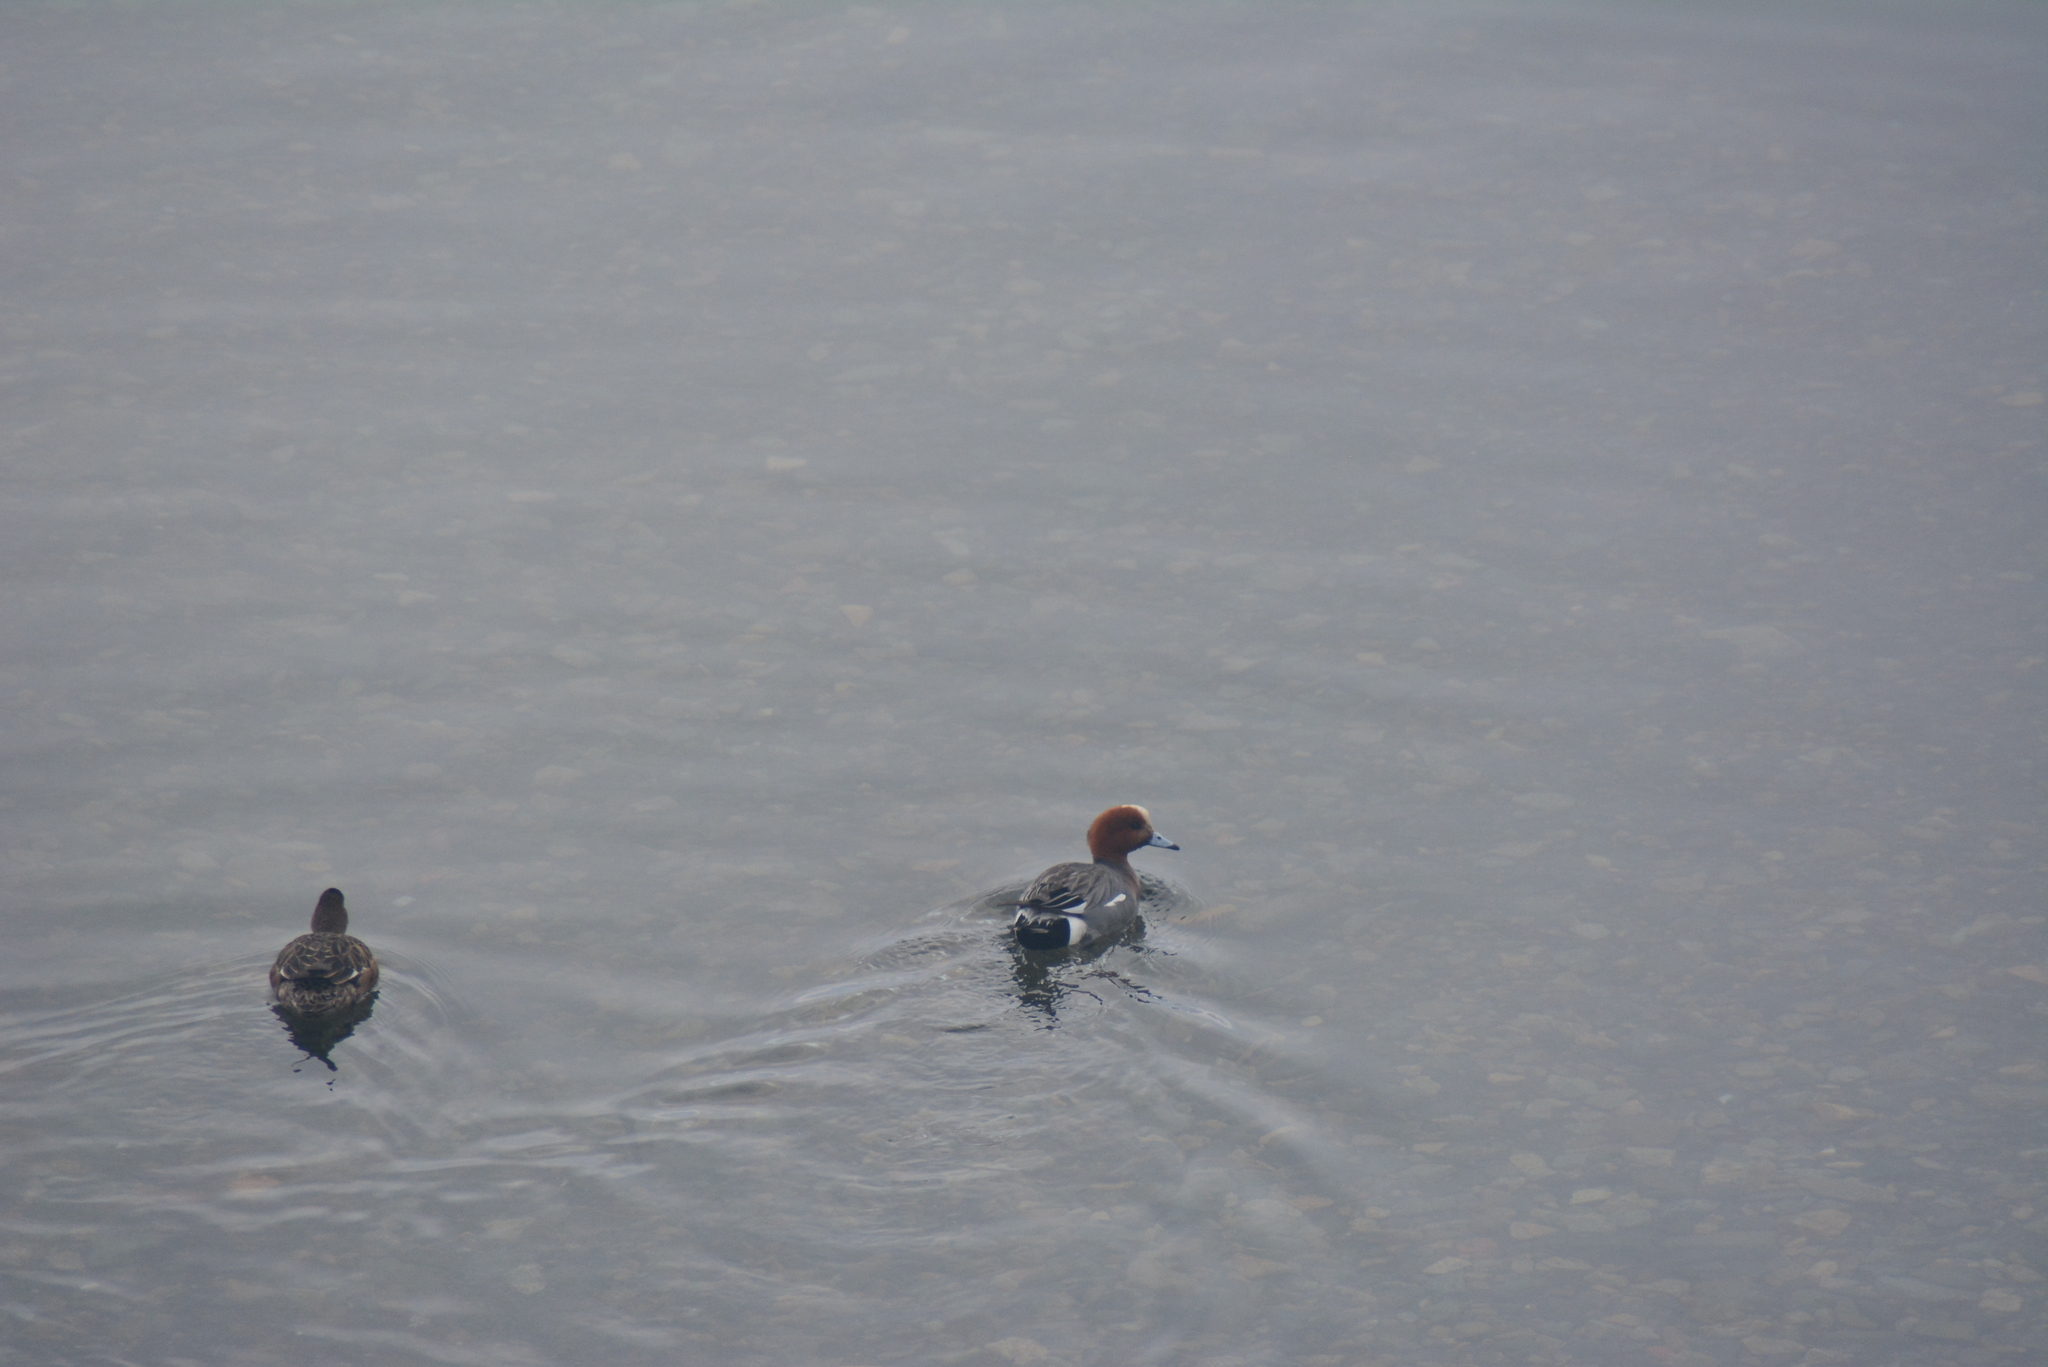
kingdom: Animalia
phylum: Chordata
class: Aves
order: Anseriformes
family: Anatidae
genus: Mareca
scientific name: Mareca penelope
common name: Eurasian wigeon
